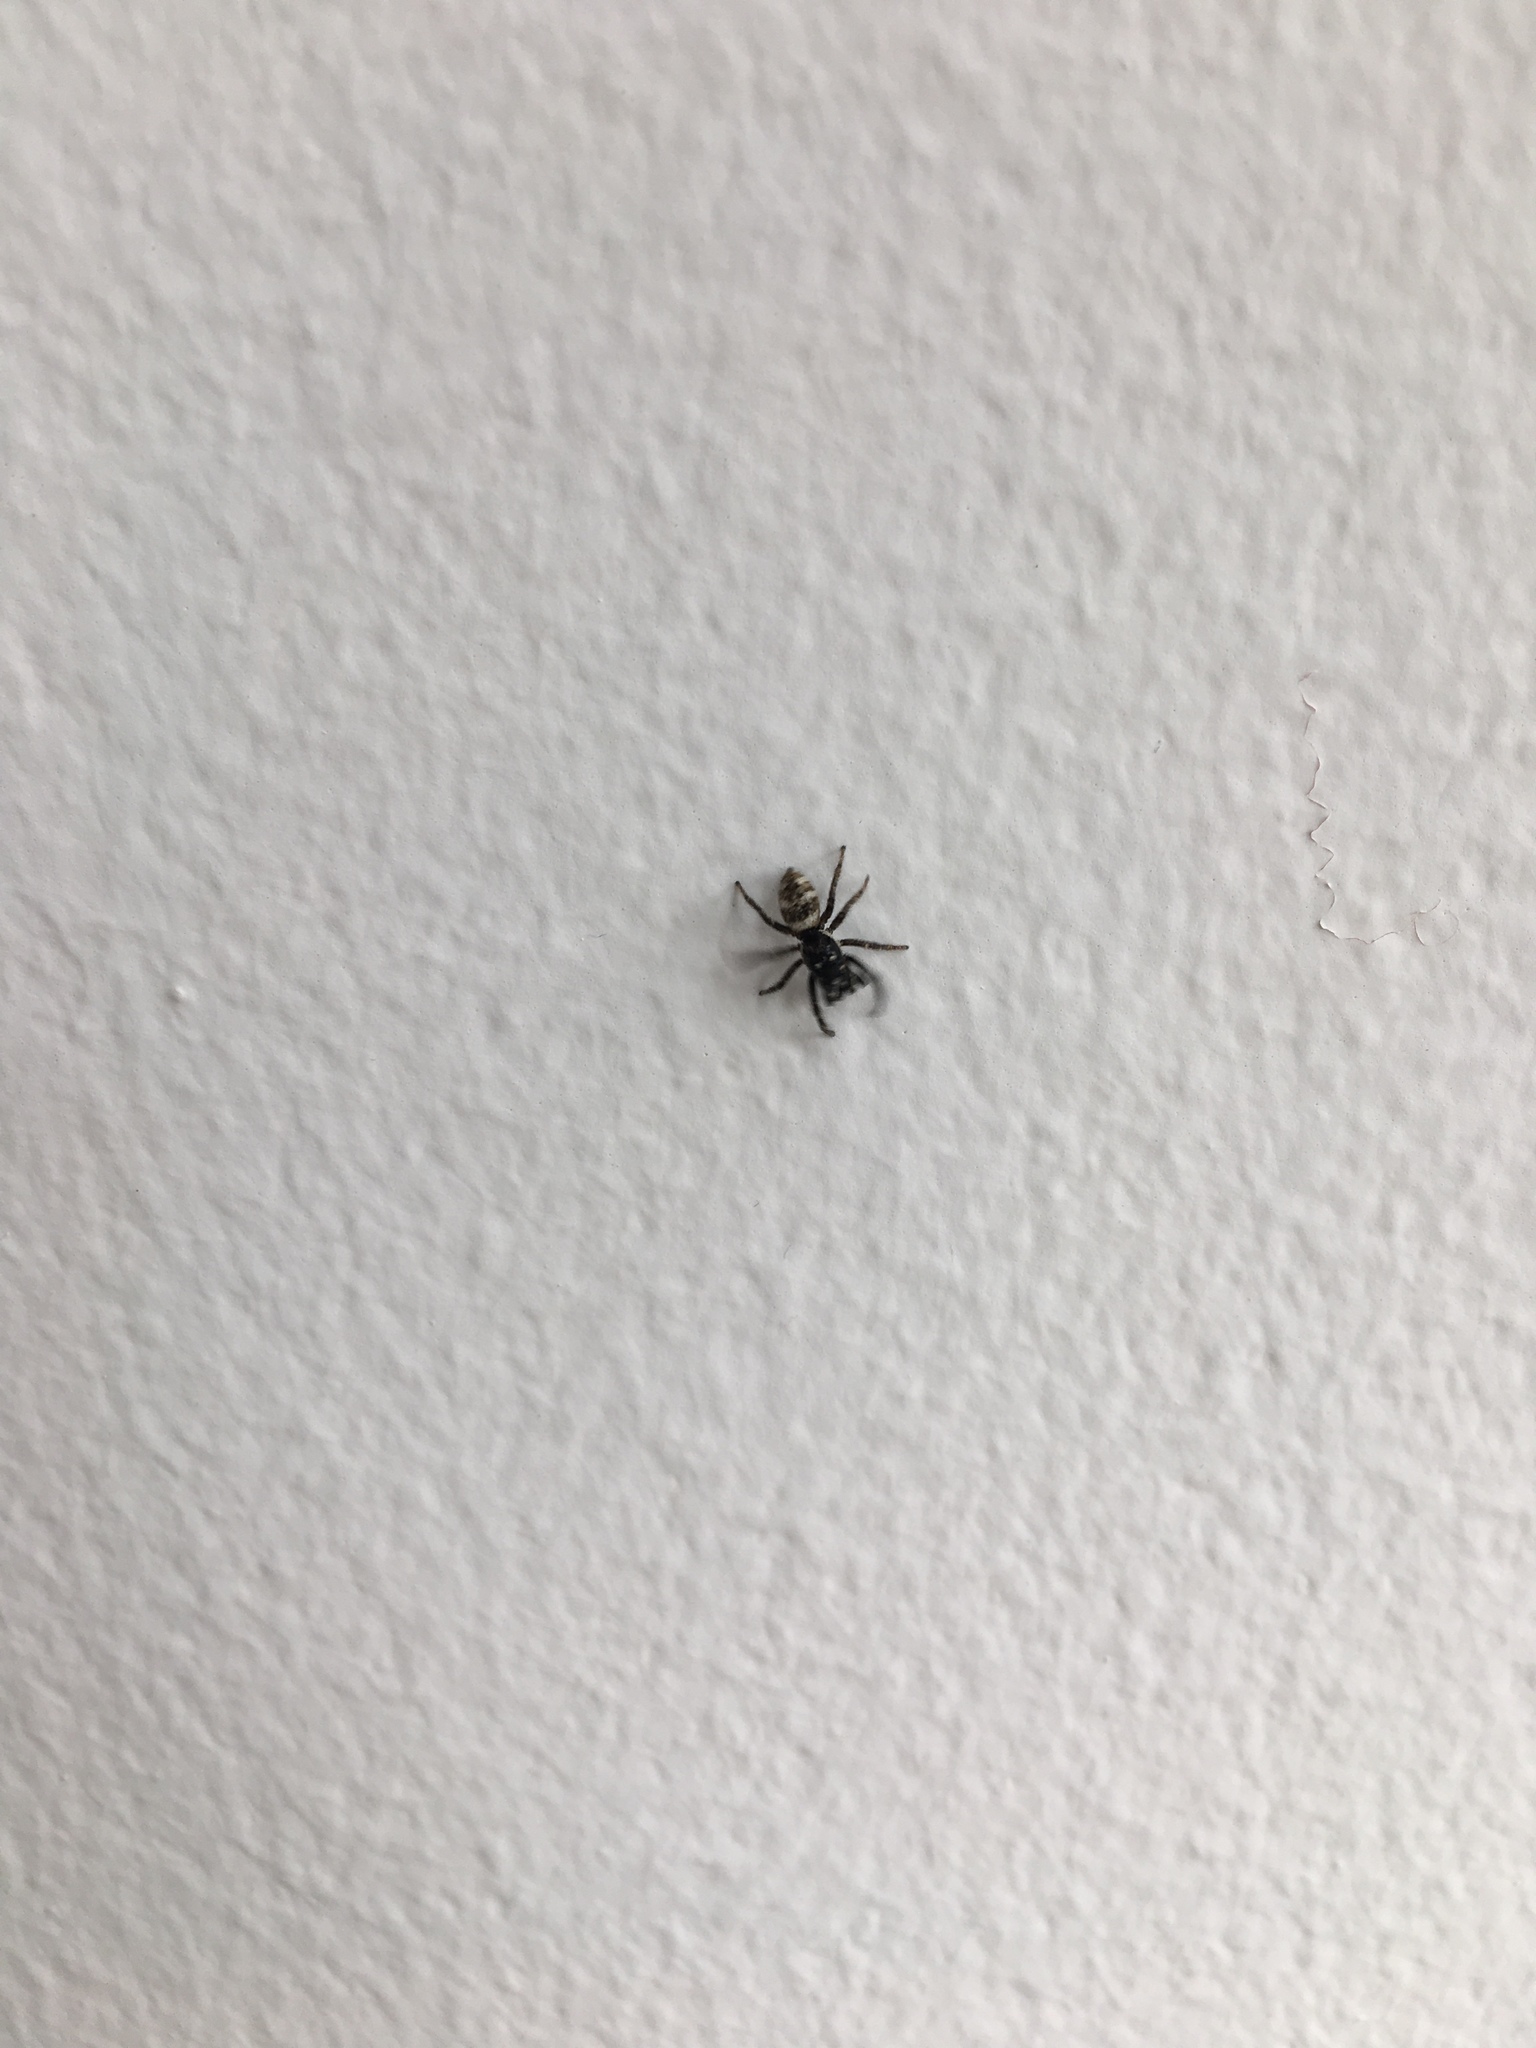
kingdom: Animalia
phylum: Arthropoda
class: Arachnida
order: Araneae
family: Salticidae
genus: Salticus
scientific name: Salticus scenicus
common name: Zebra jumper
